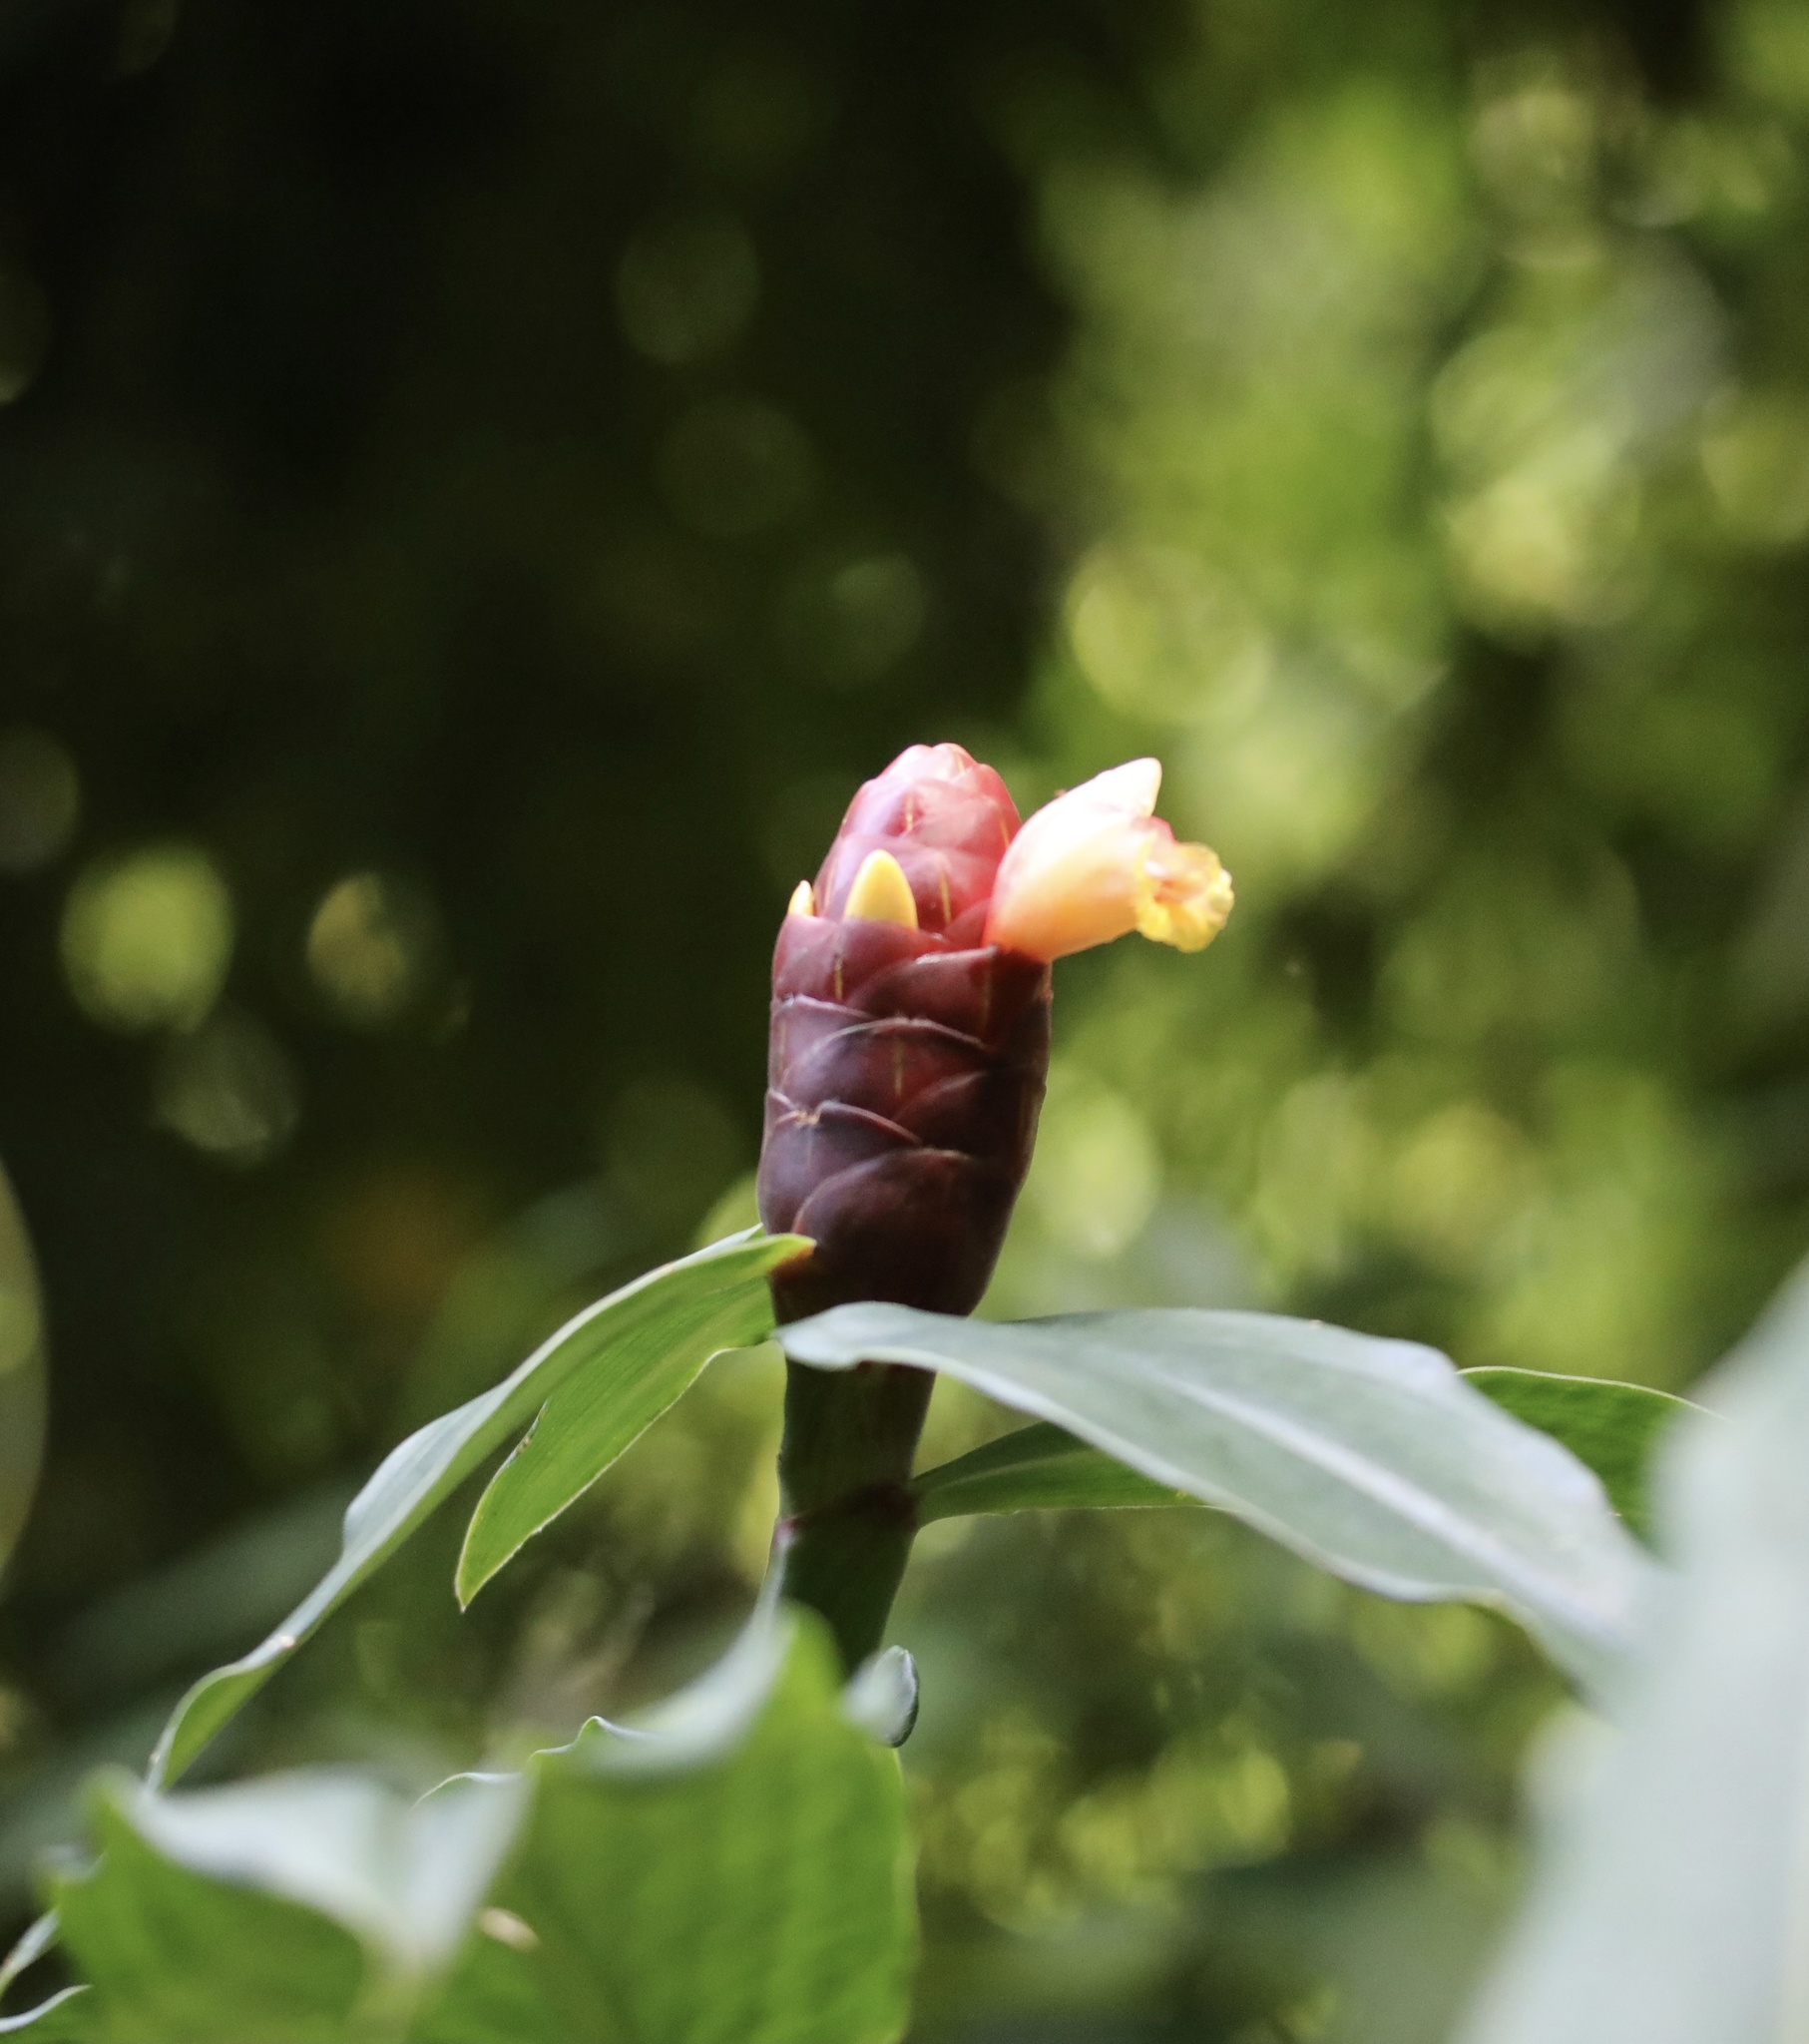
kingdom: Plantae
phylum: Tracheophyta
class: Liliopsida
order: Zingiberales
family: Costaceae
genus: Costus
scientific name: Costus spicatus
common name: Spiked spiral-flag
